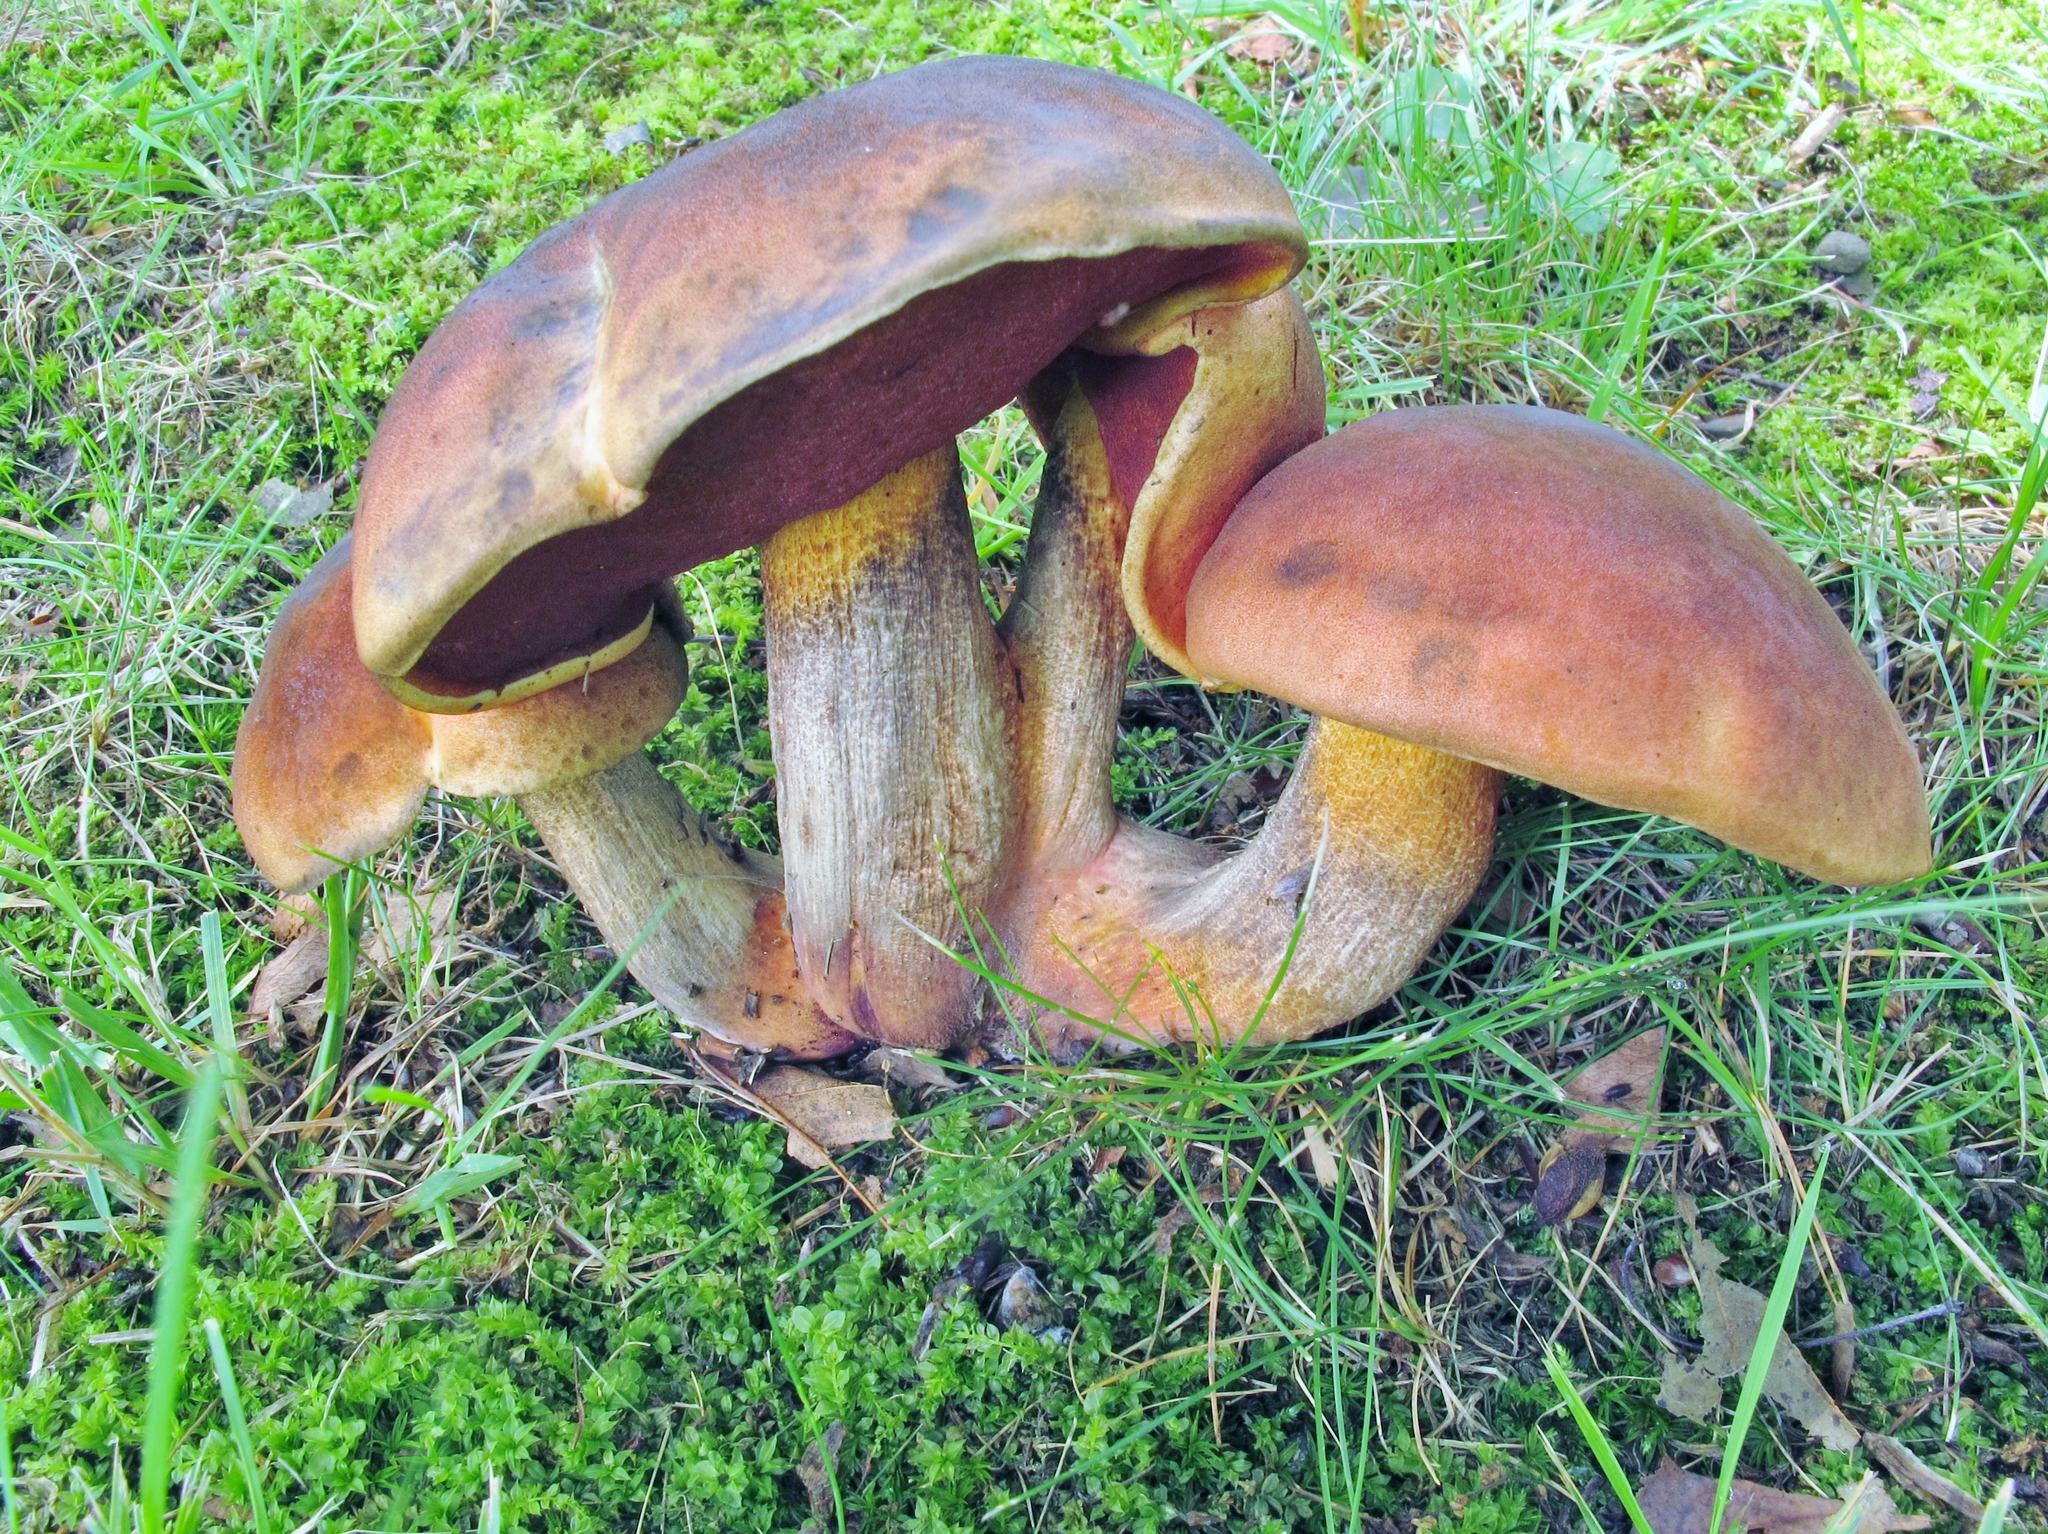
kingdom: Fungi
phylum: Basidiomycota
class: Agaricomycetes
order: Boletales
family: Boletaceae
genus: Boletus
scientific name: Boletus subvelutipes
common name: Red-mouth bolete
